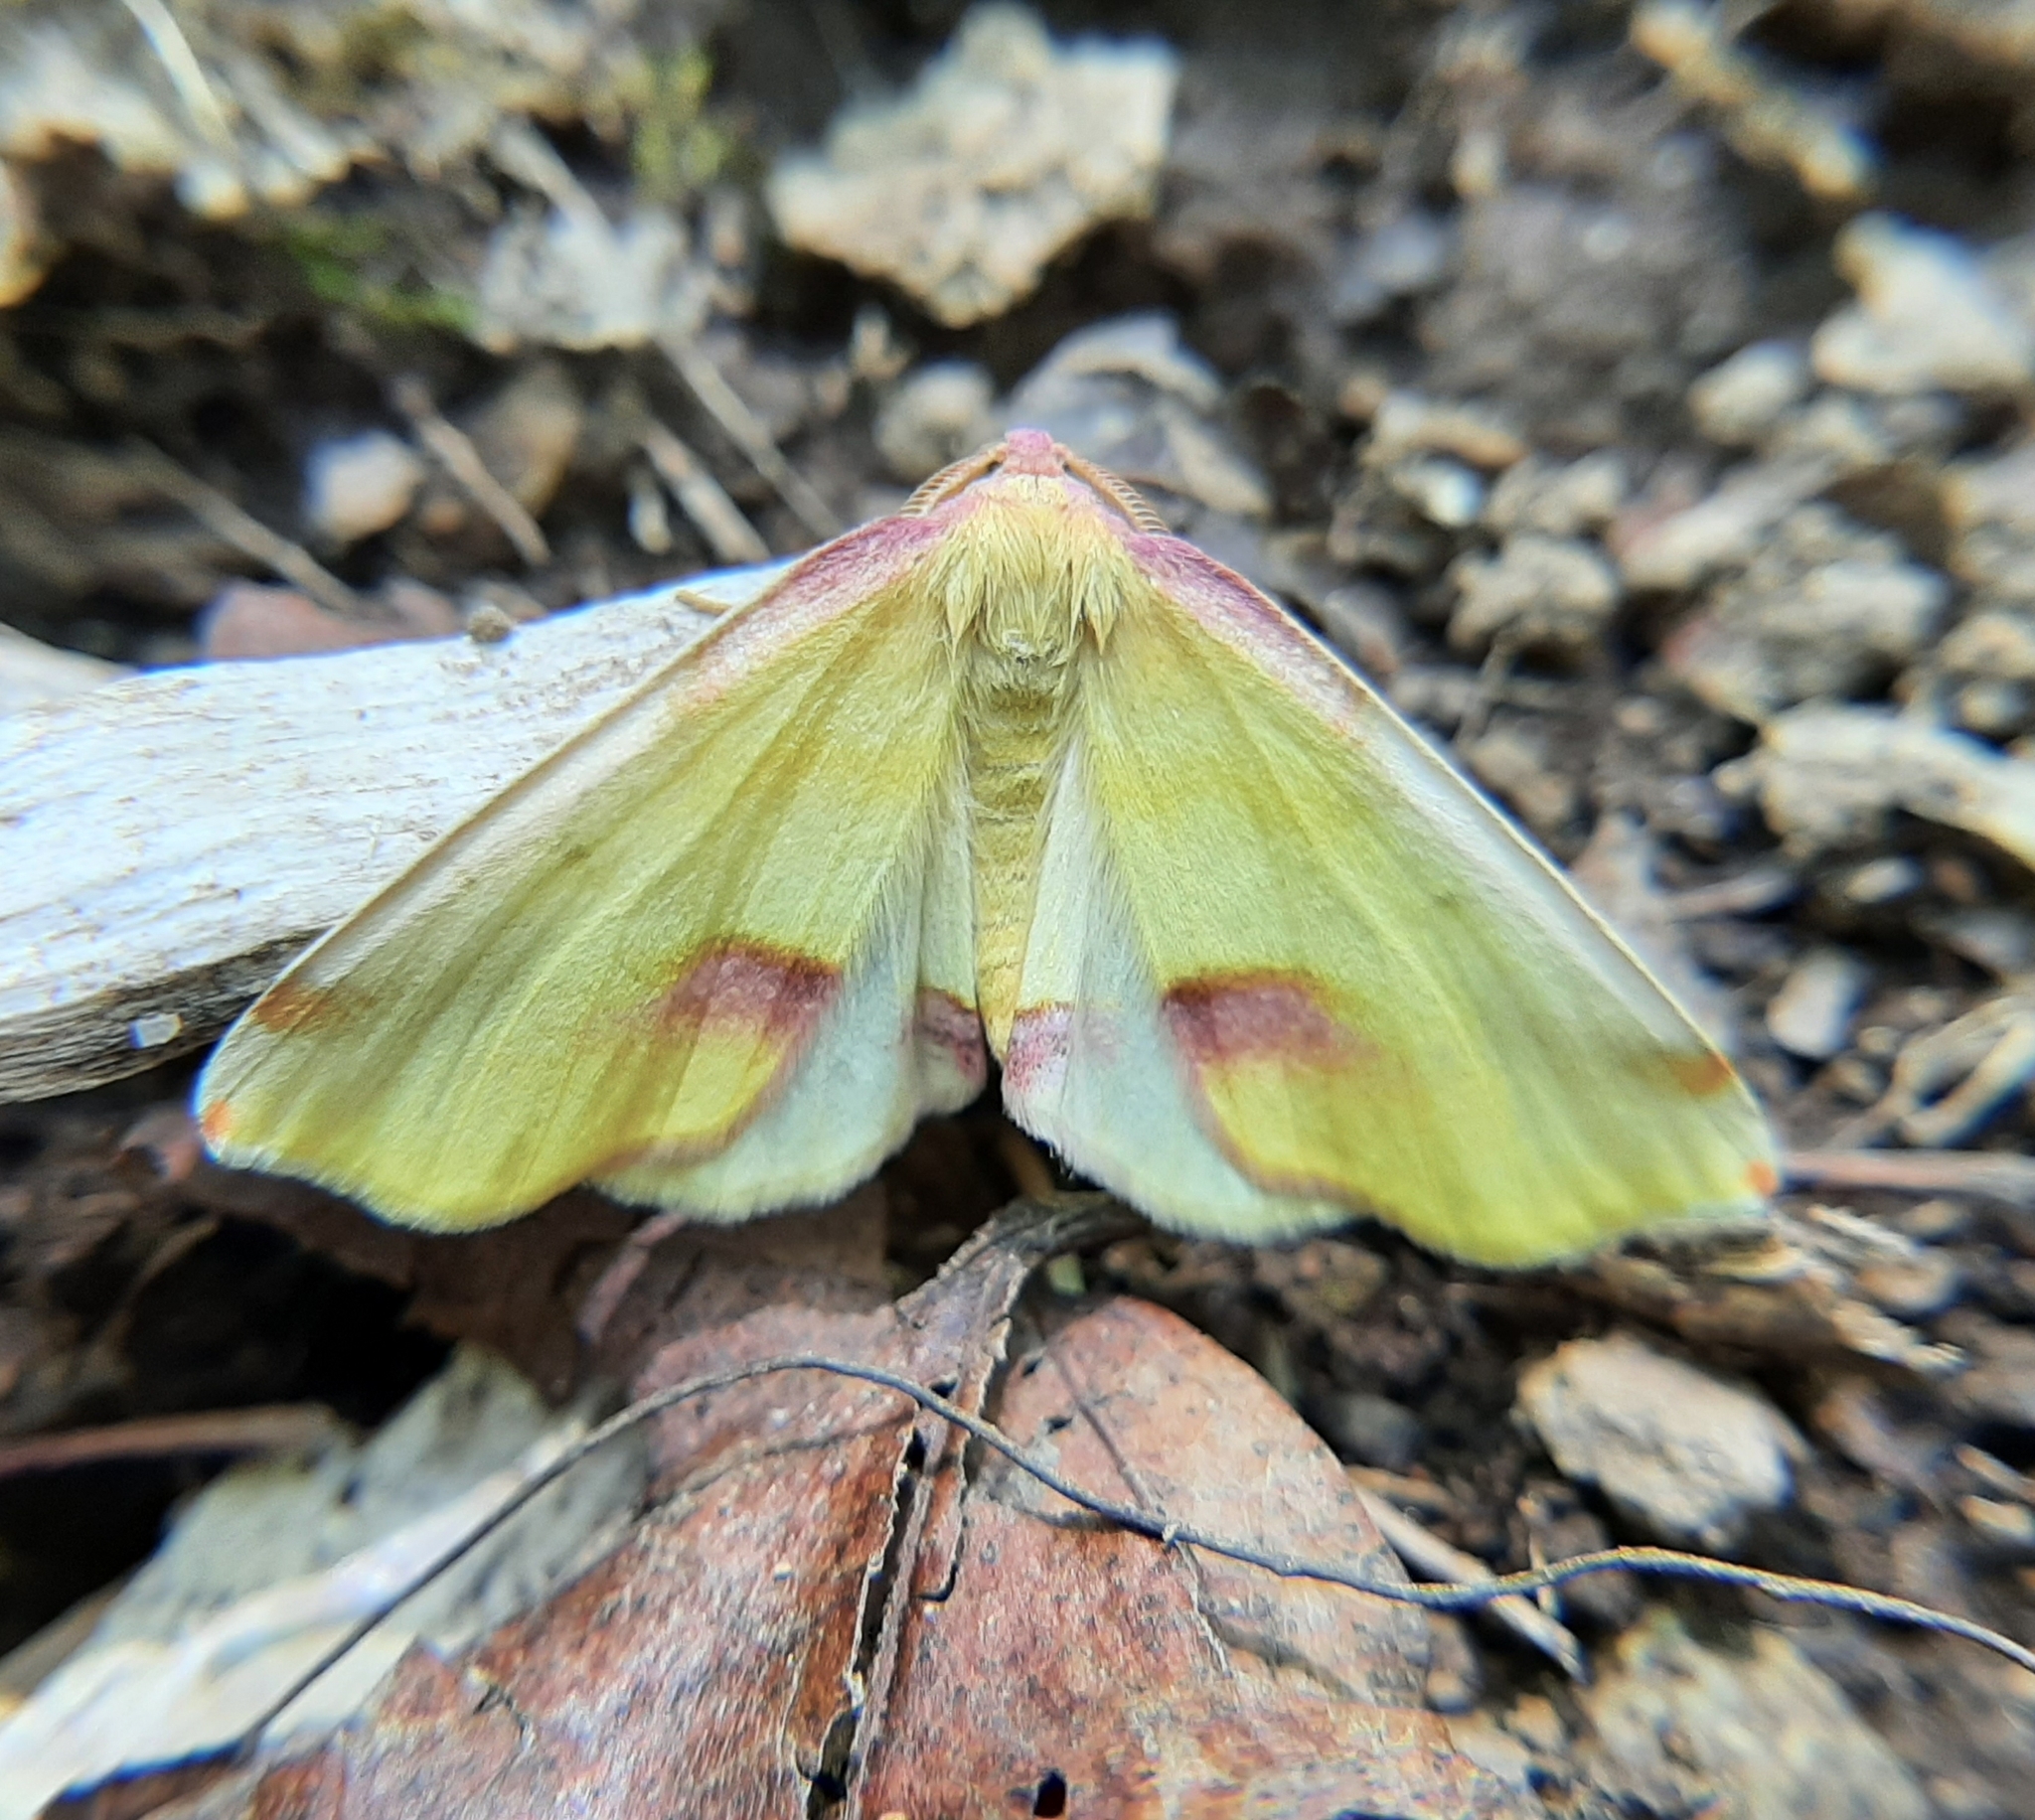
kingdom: Animalia
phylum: Arthropoda
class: Insecta
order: Lepidoptera
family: Geometridae
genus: Plagodis
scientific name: Plagodis serinaria
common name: Lemon plagodis
